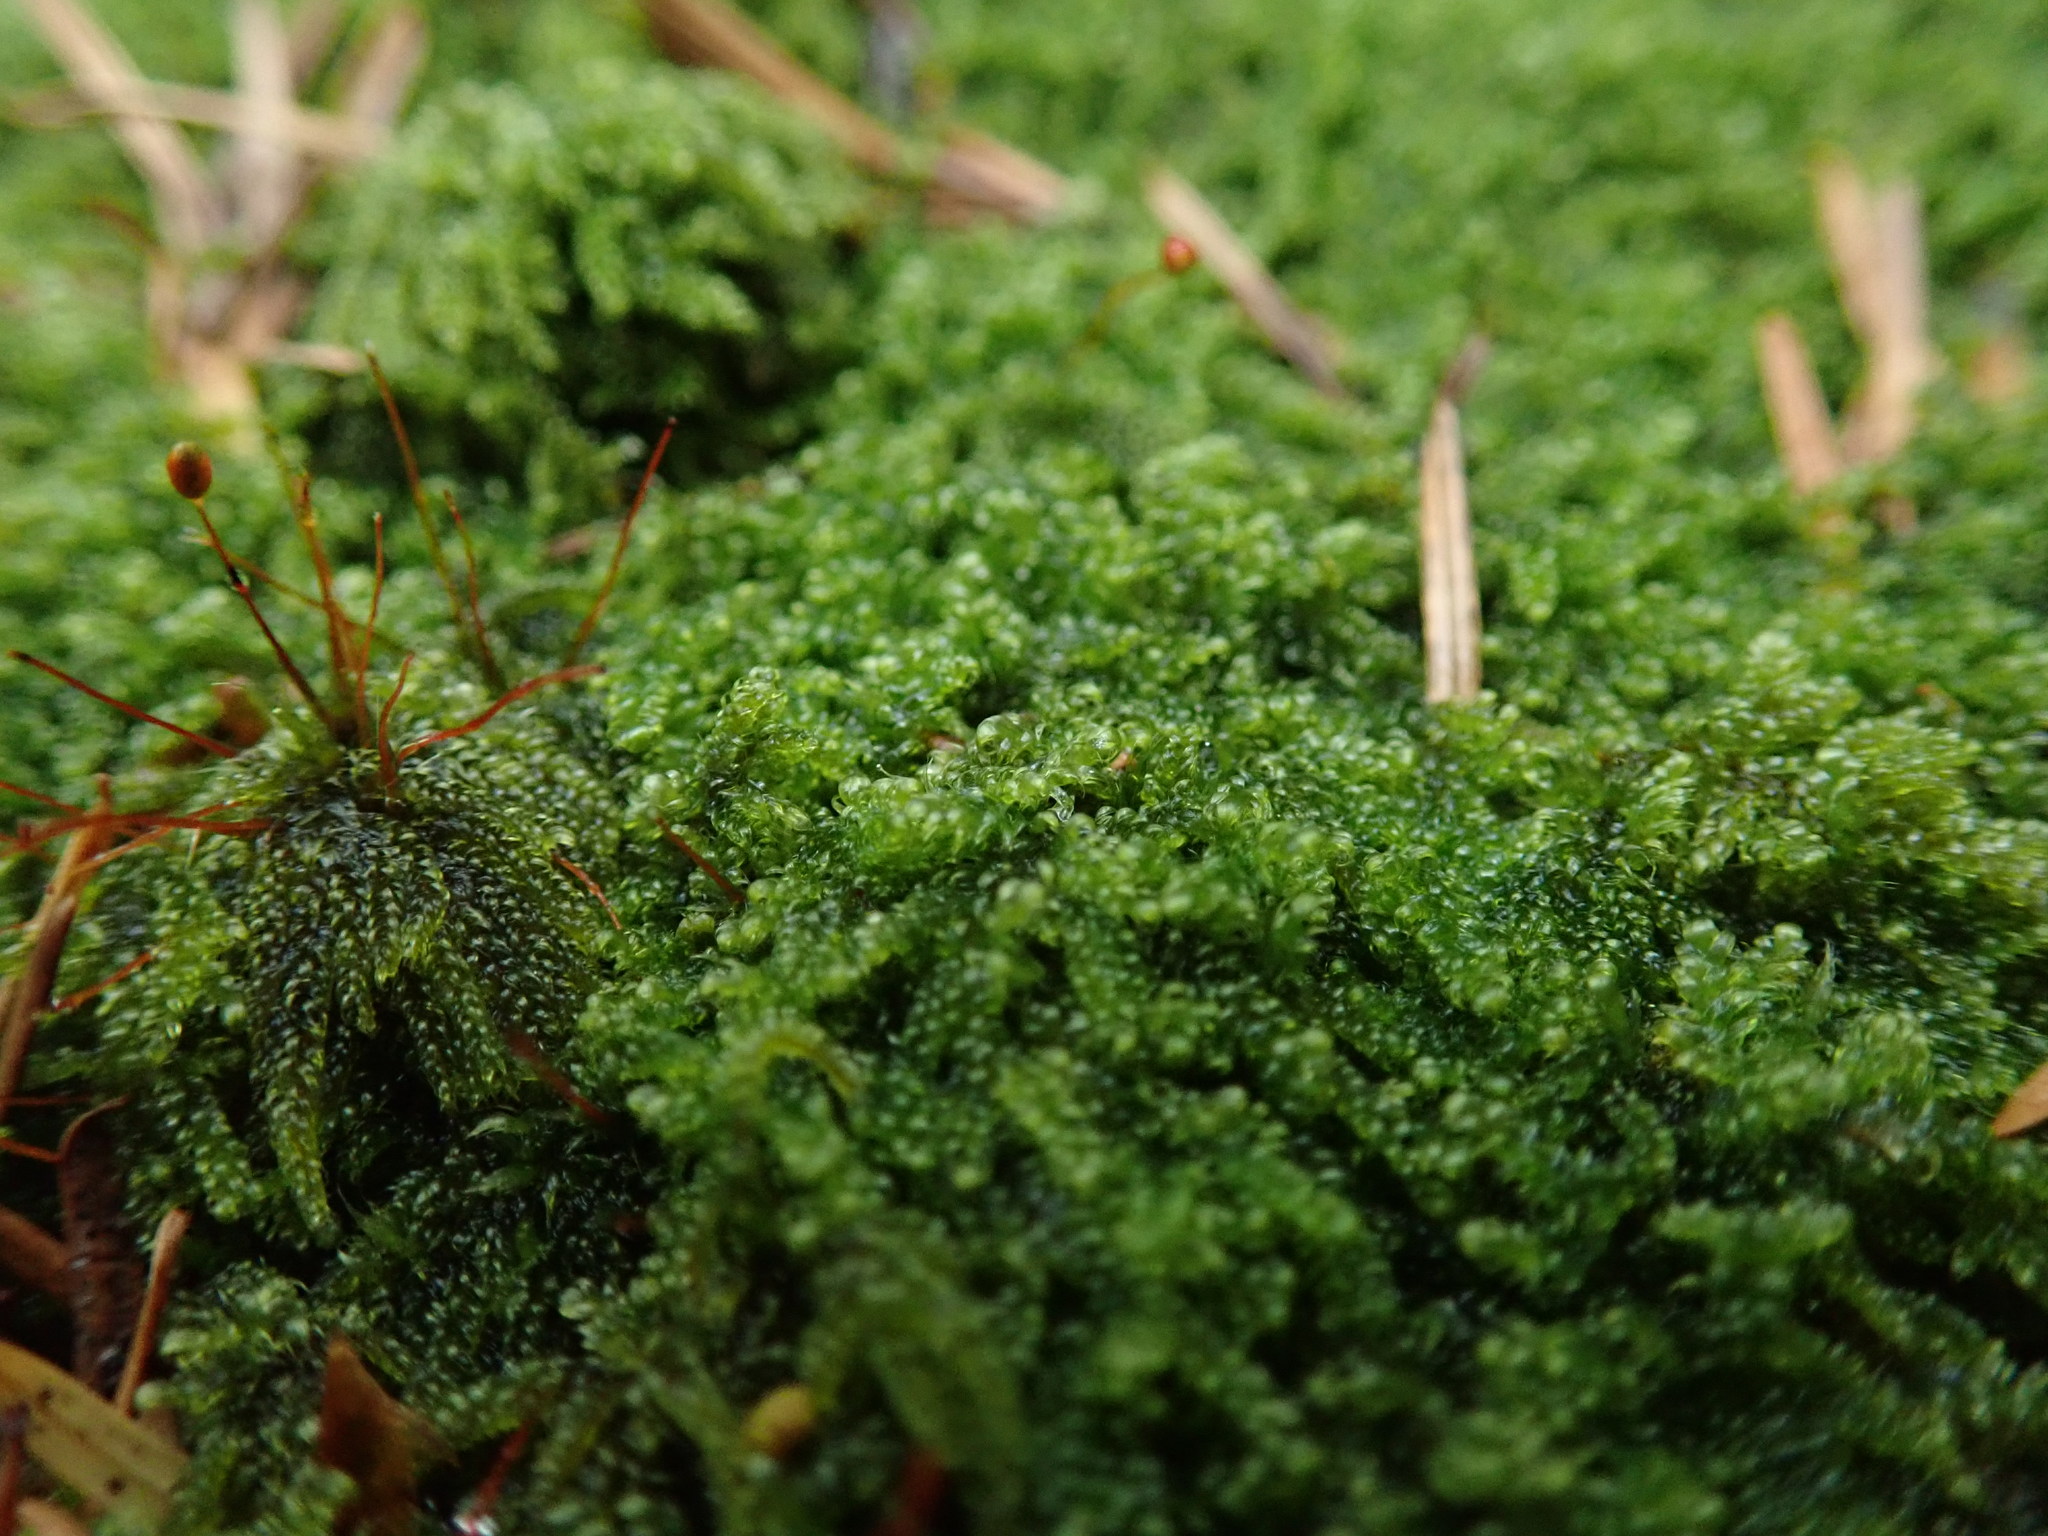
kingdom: Plantae
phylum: Bryophyta
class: Bryopsida
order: Hypnales
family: Pylaisiadelphaceae
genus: Trochophyllohypnum
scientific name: Trochophyllohypnum circinale
